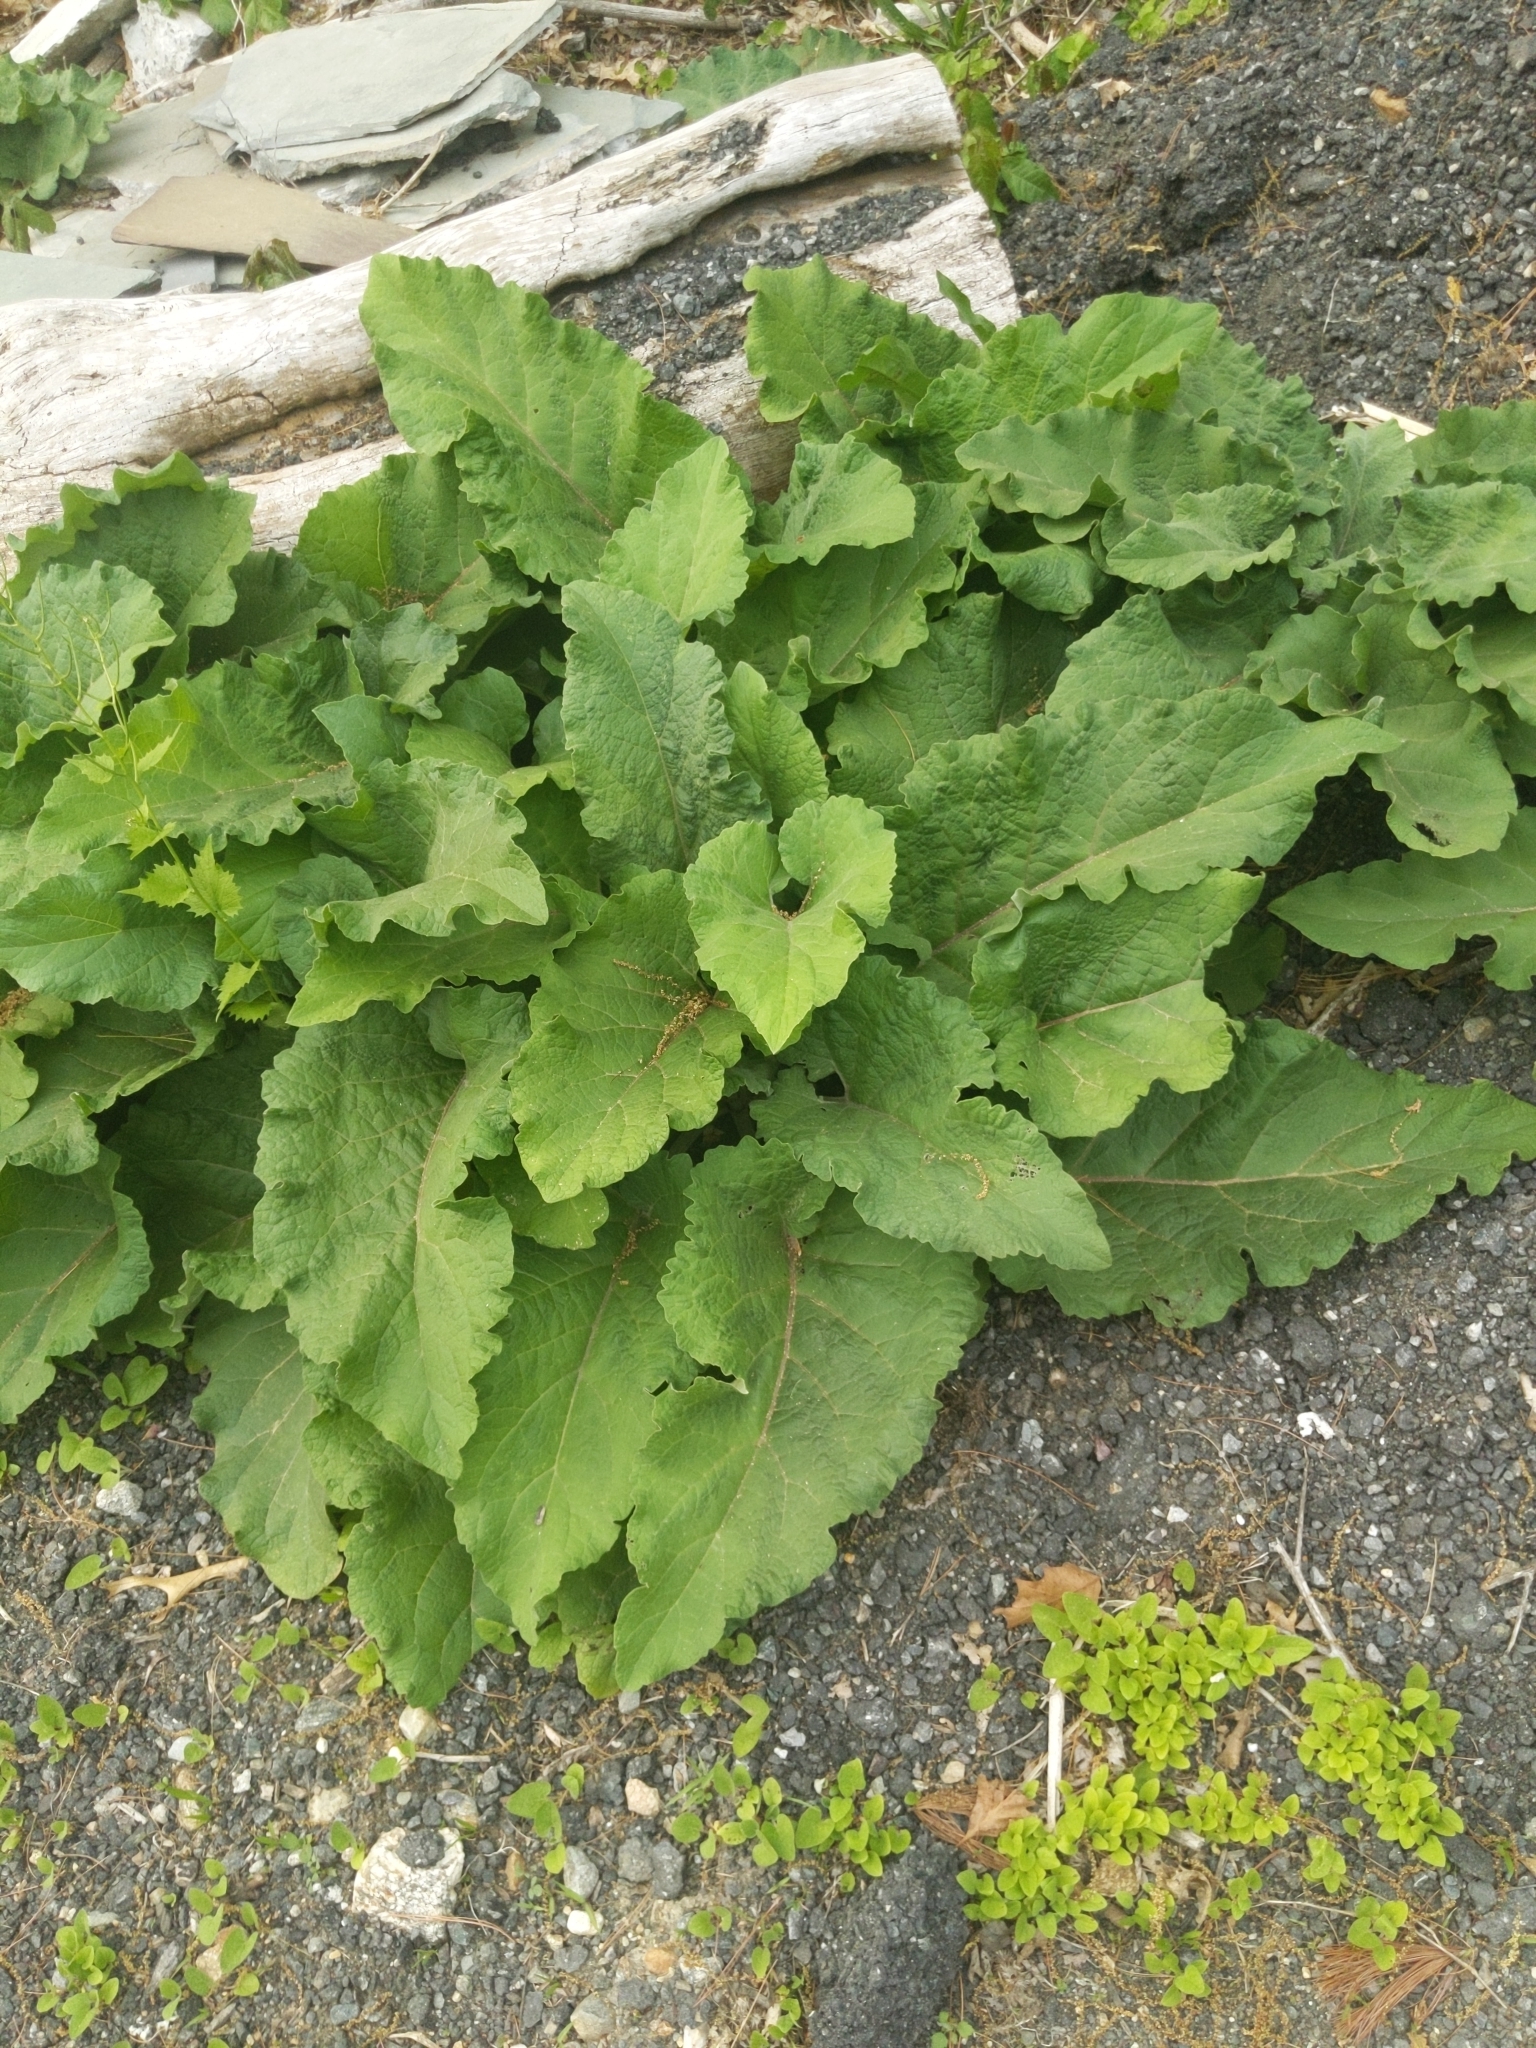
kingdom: Plantae
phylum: Tracheophyta
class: Magnoliopsida
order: Asterales
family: Asteraceae
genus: Arctium
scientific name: Arctium
